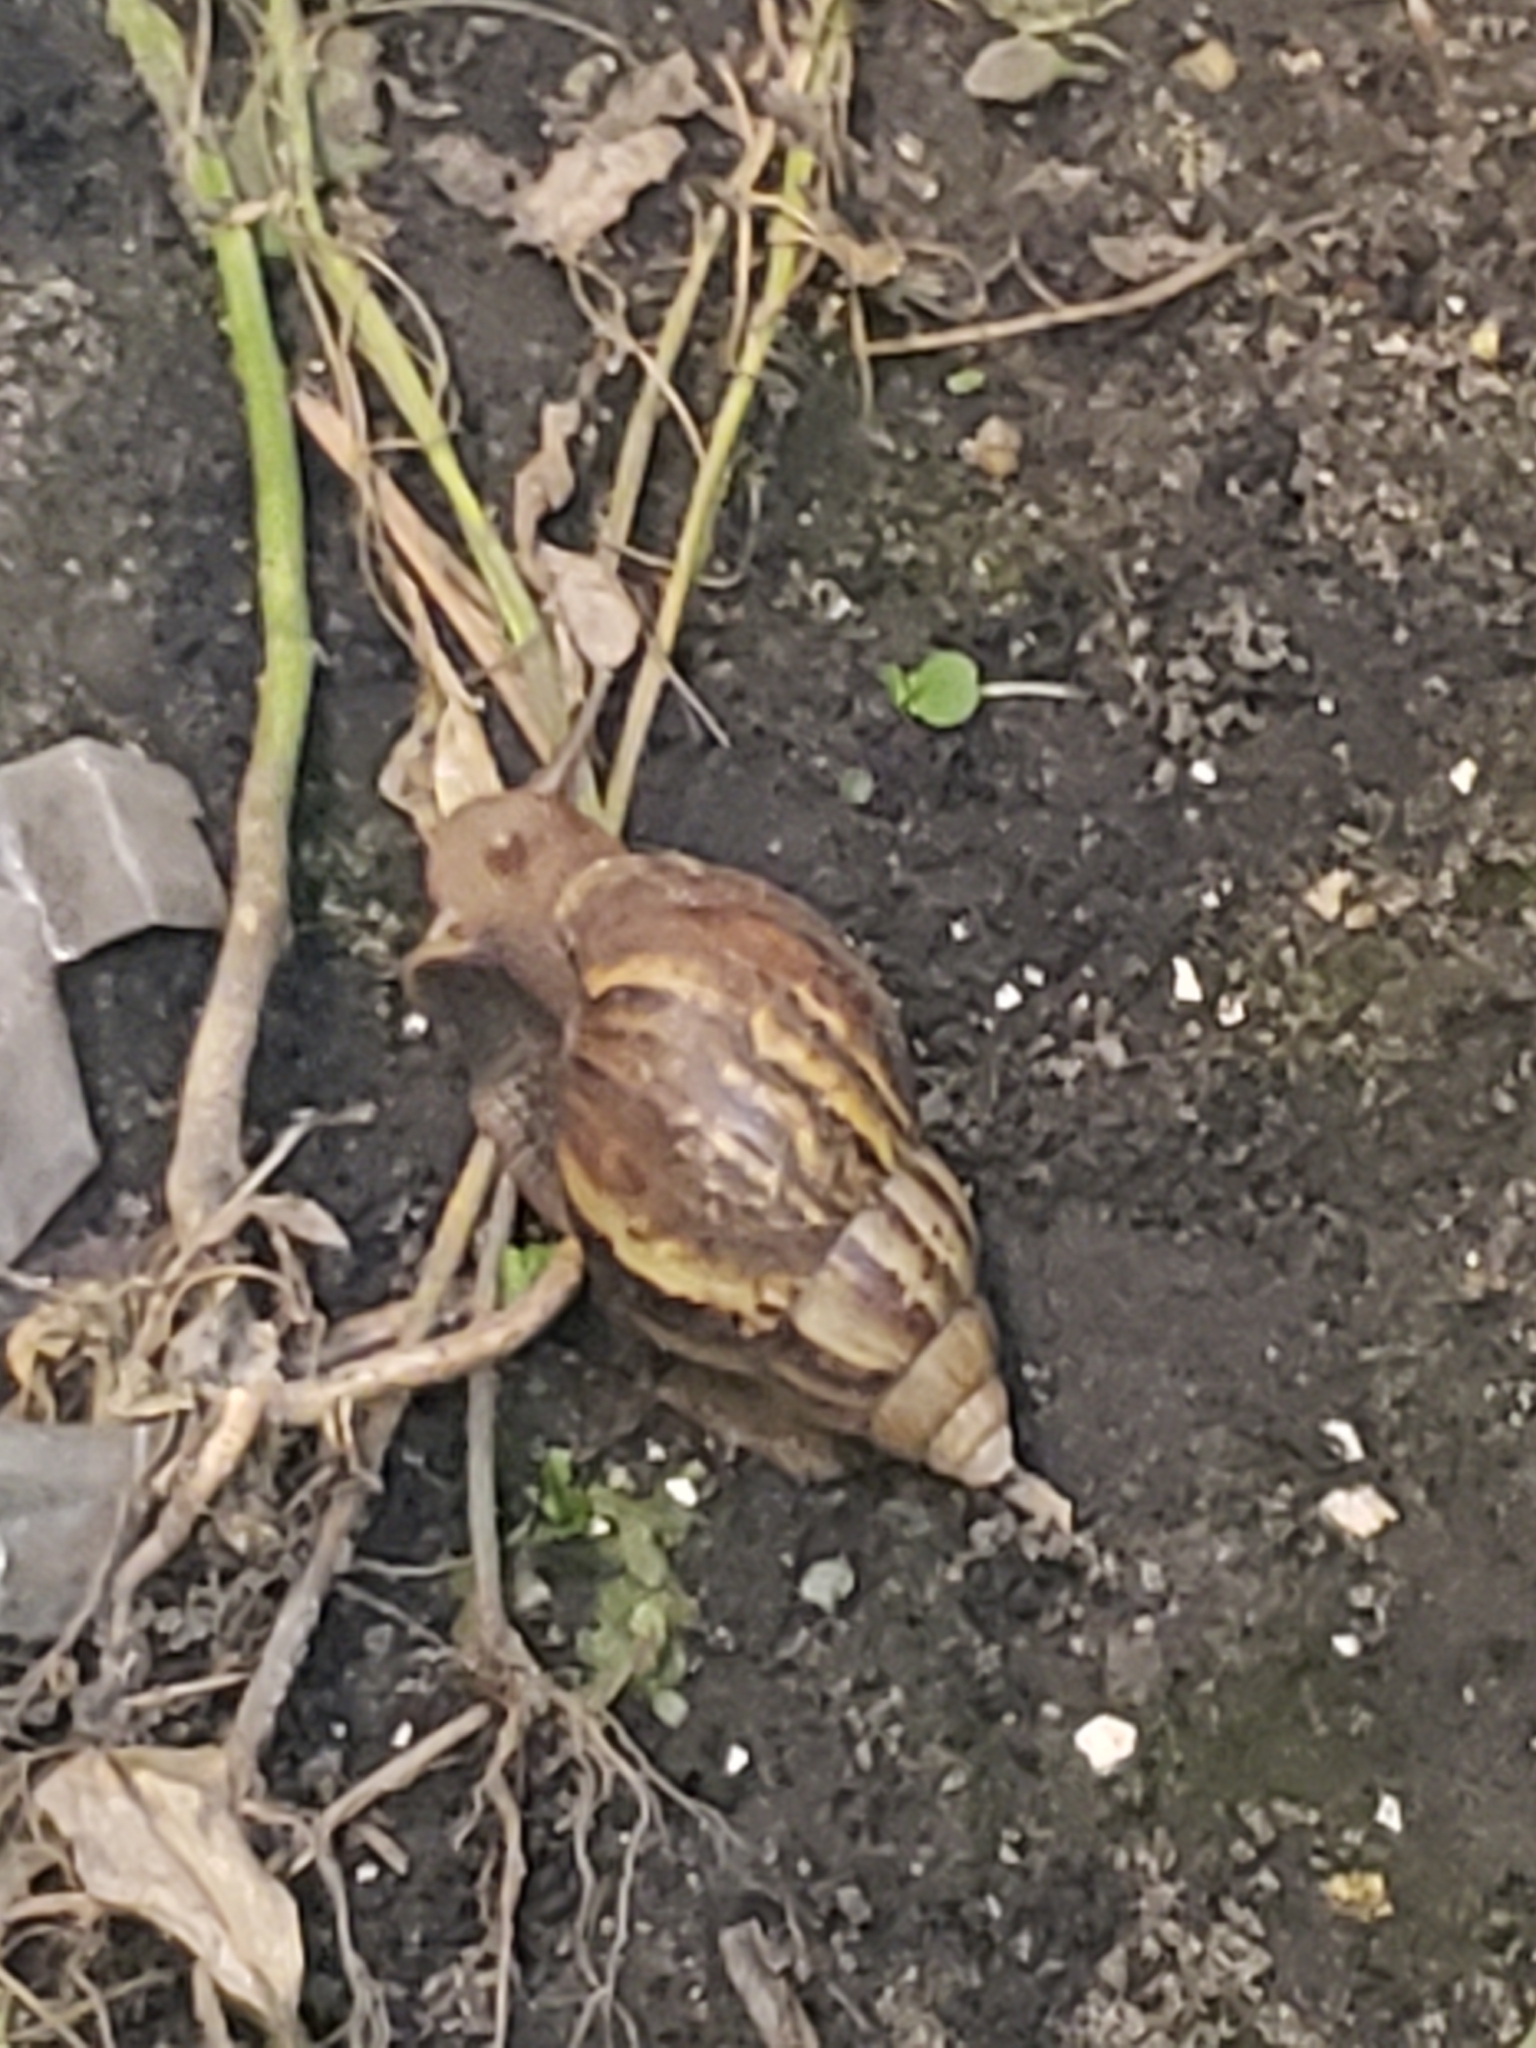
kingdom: Animalia
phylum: Mollusca
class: Gastropoda
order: Stylommatophora
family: Achatinidae
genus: Lissachatina
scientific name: Lissachatina fulica
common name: Giant african snail
